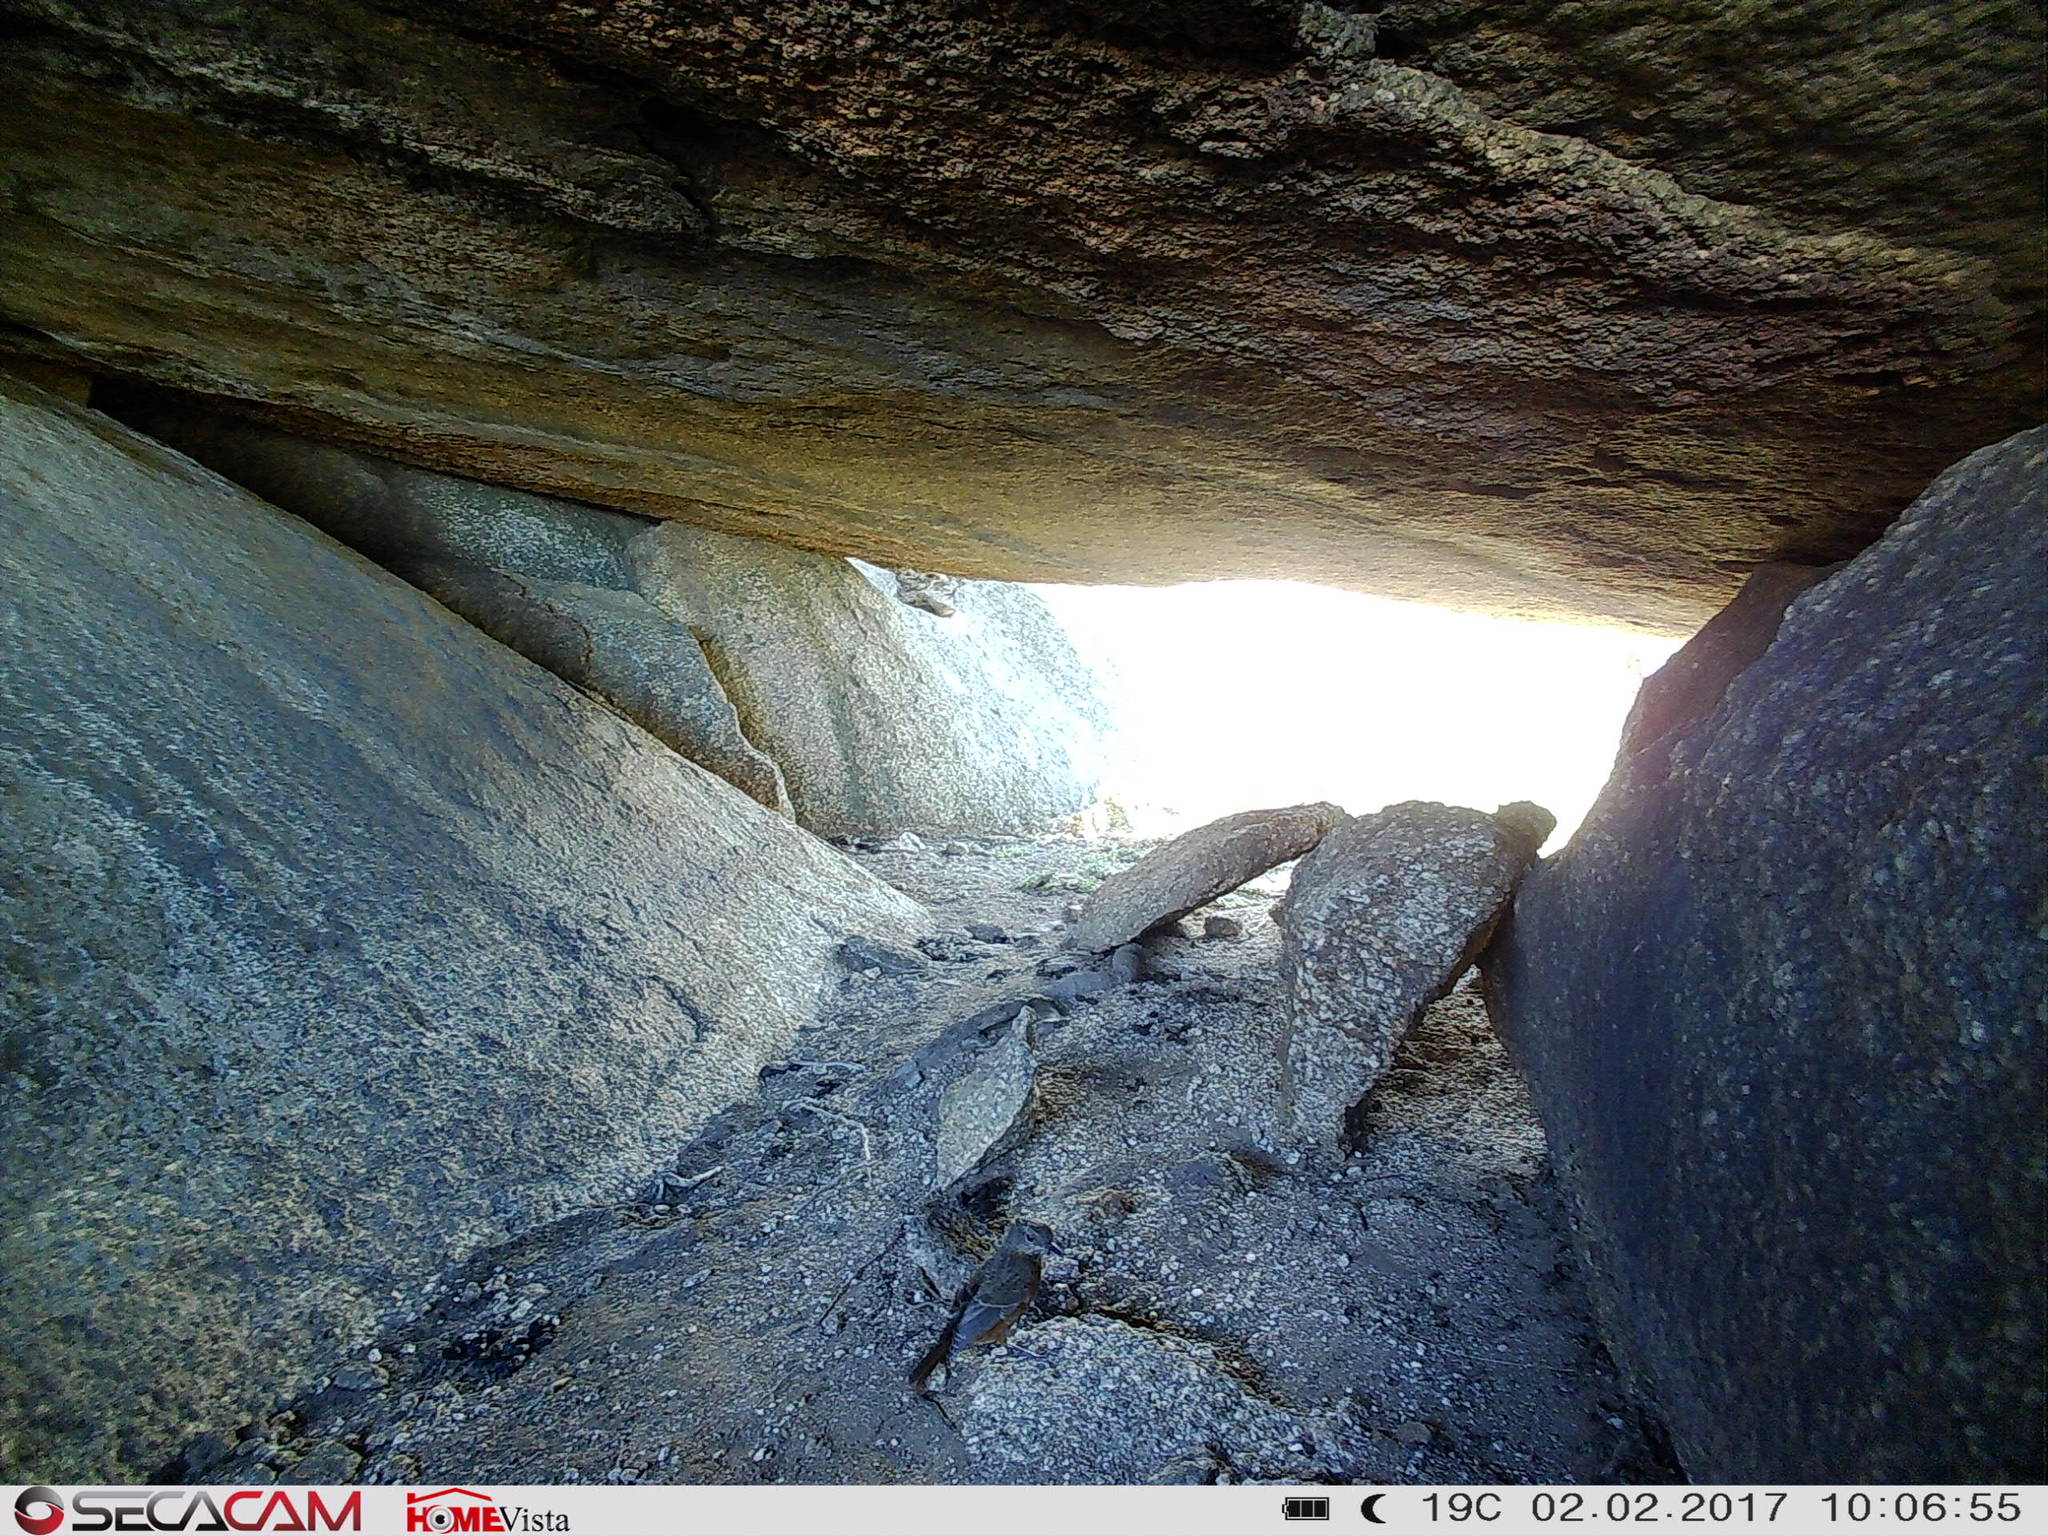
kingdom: Animalia
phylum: Chordata
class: Aves
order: Passeriformes
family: Muscicapidae
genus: Monticola
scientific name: Monticola rupestris
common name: Cape rock thrush
